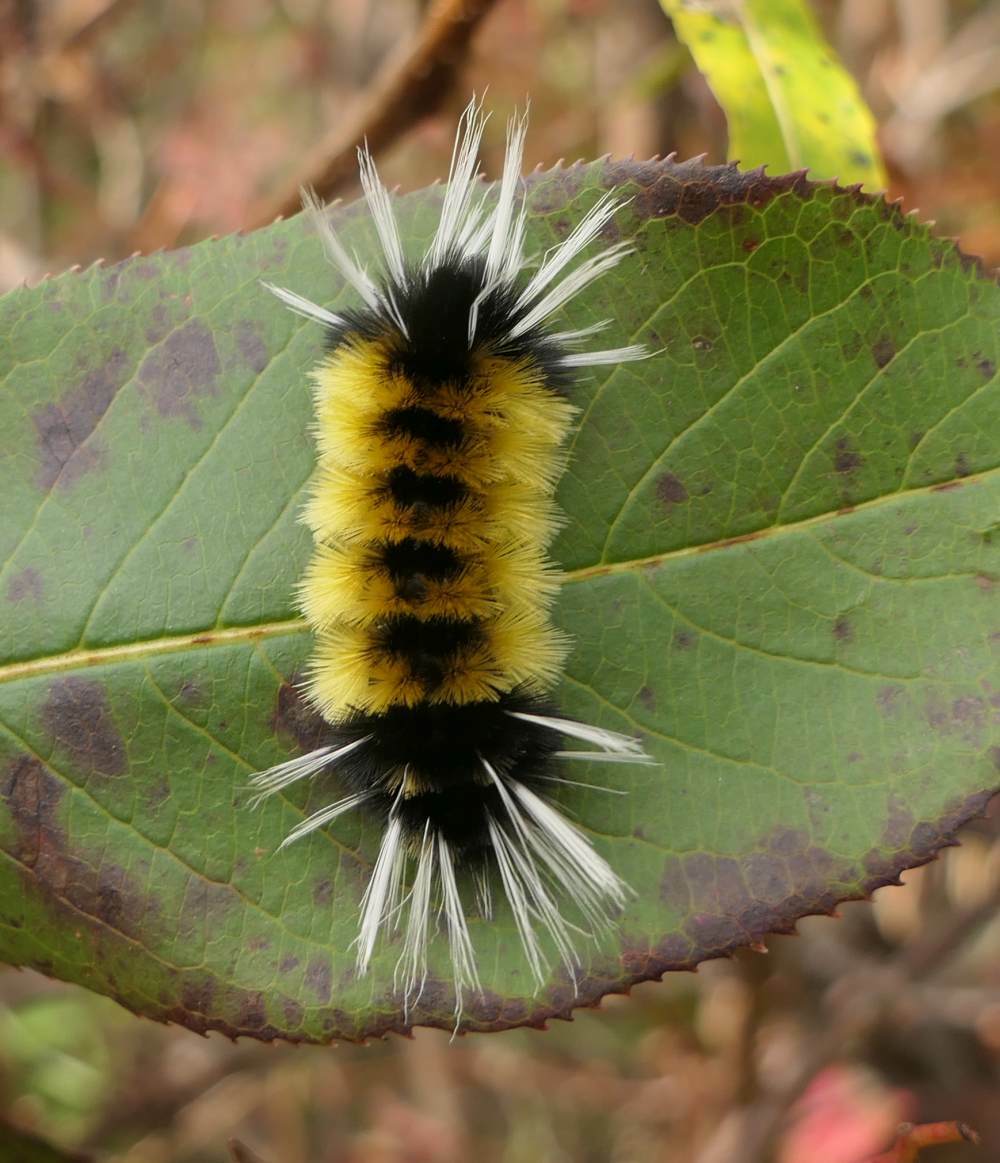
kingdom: Animalia
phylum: Arthropoda
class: Insecta
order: Lepidoptera
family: Erebidae
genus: Lophocampa
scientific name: Lophocampa maculata
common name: Spotted tussock moth
